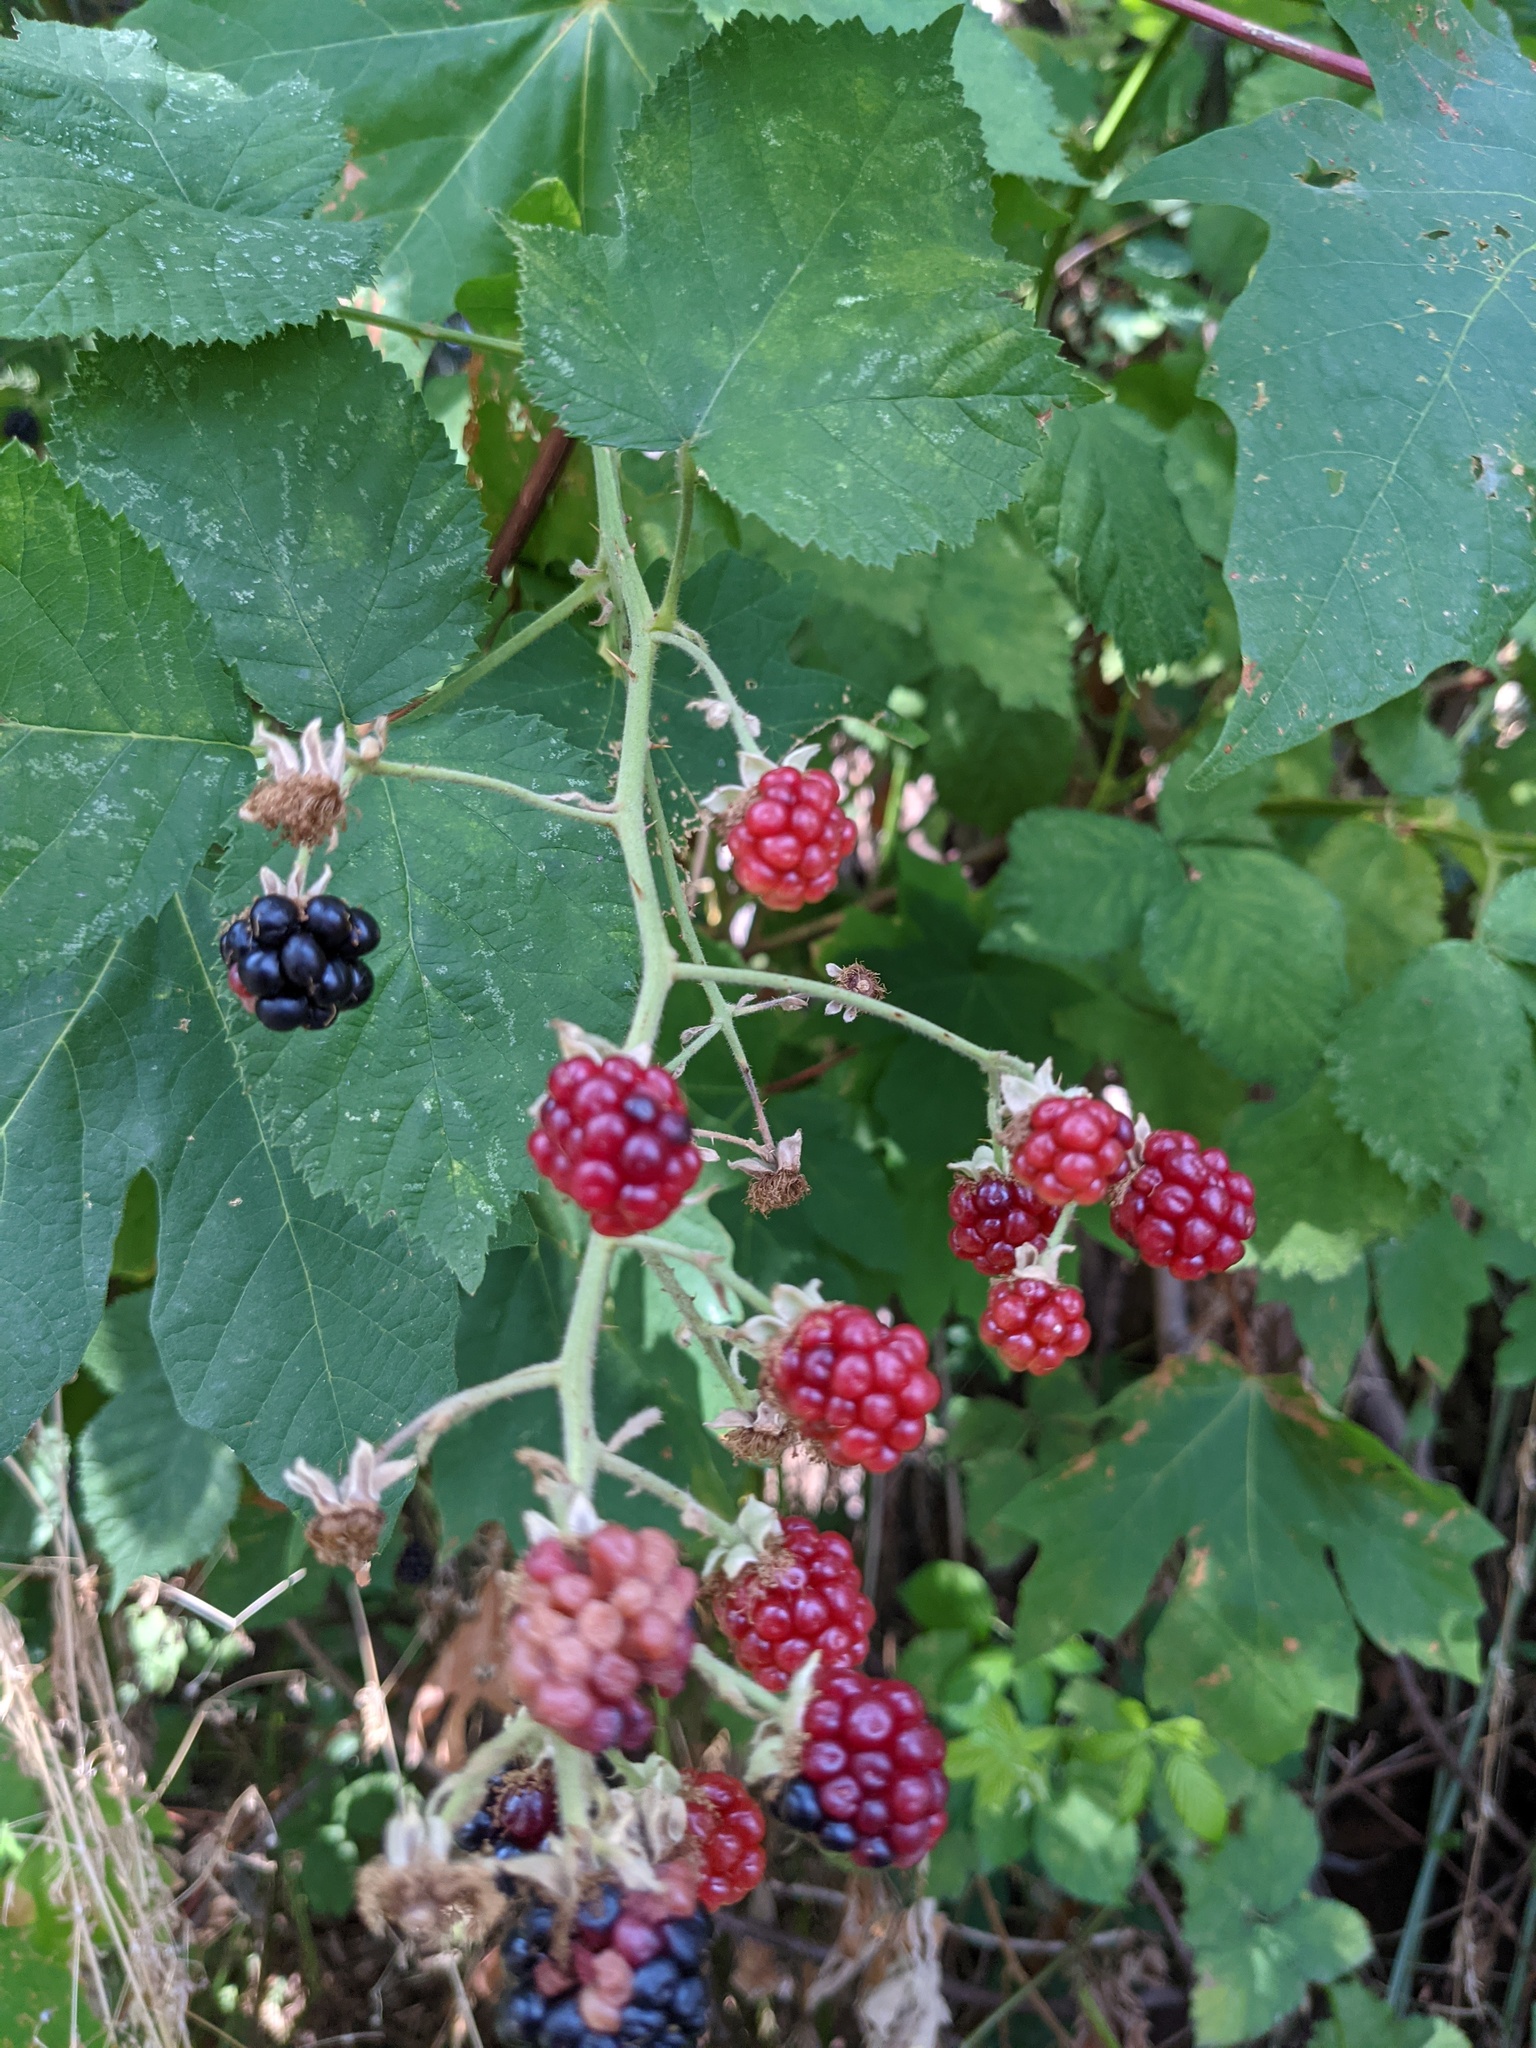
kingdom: Plantae
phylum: Tracheophyta
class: Magnoliopsida
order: Rosales
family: Rosaceae
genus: Rubus
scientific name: Rubus armeniacus
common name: Himalayan blackberry
